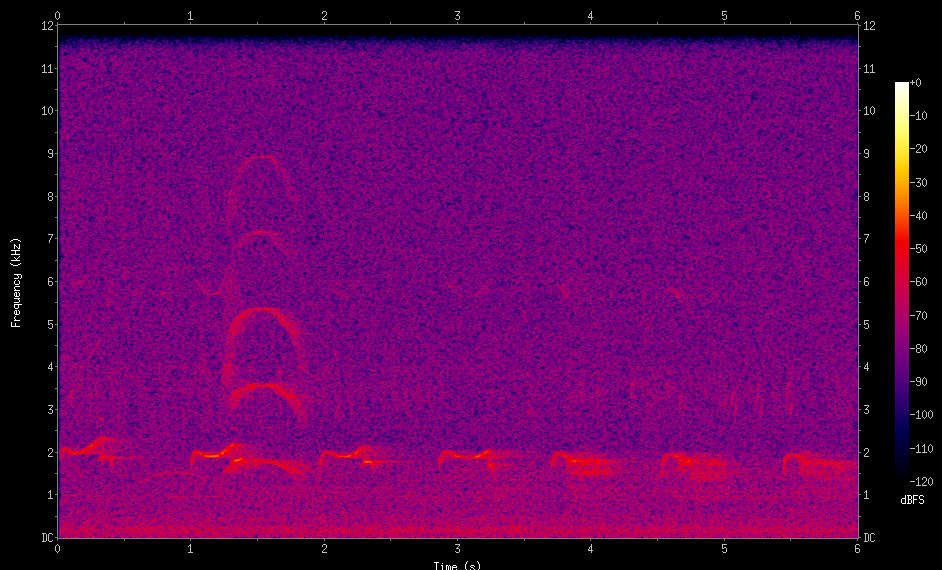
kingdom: Animalia
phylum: Chordata
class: Aves
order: Cuculiformes
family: Cuculidae
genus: Guira
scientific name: Guira guira
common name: Guira cuckoo
